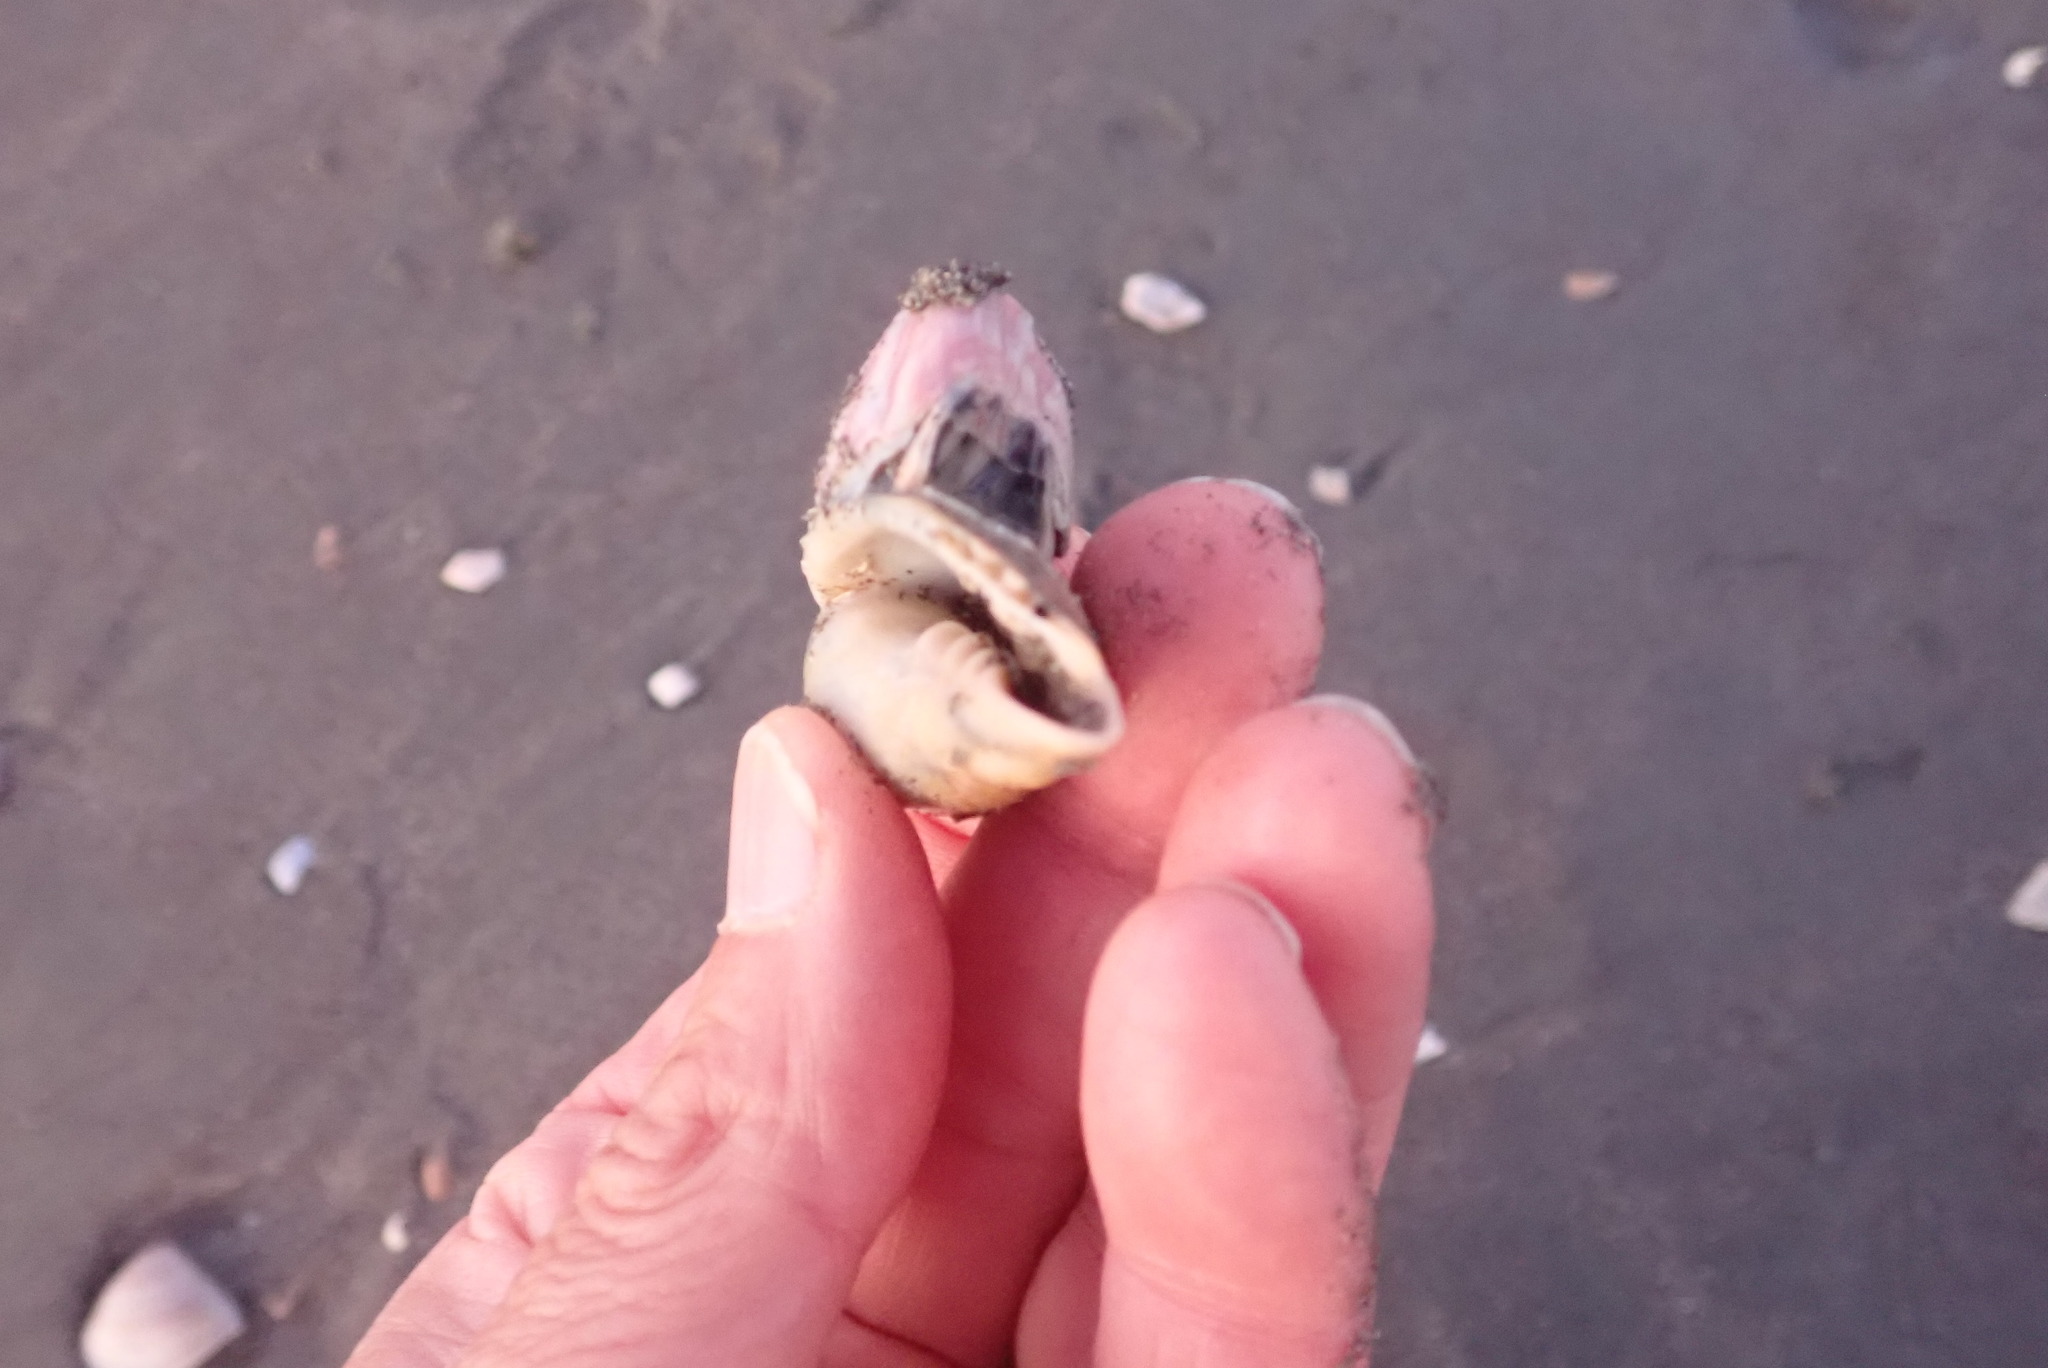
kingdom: Animalia
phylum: Mollusca
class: Gastropoda
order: Neogastropoda
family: Volutidae
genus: Alcithoe
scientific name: Alcithoe fusus
